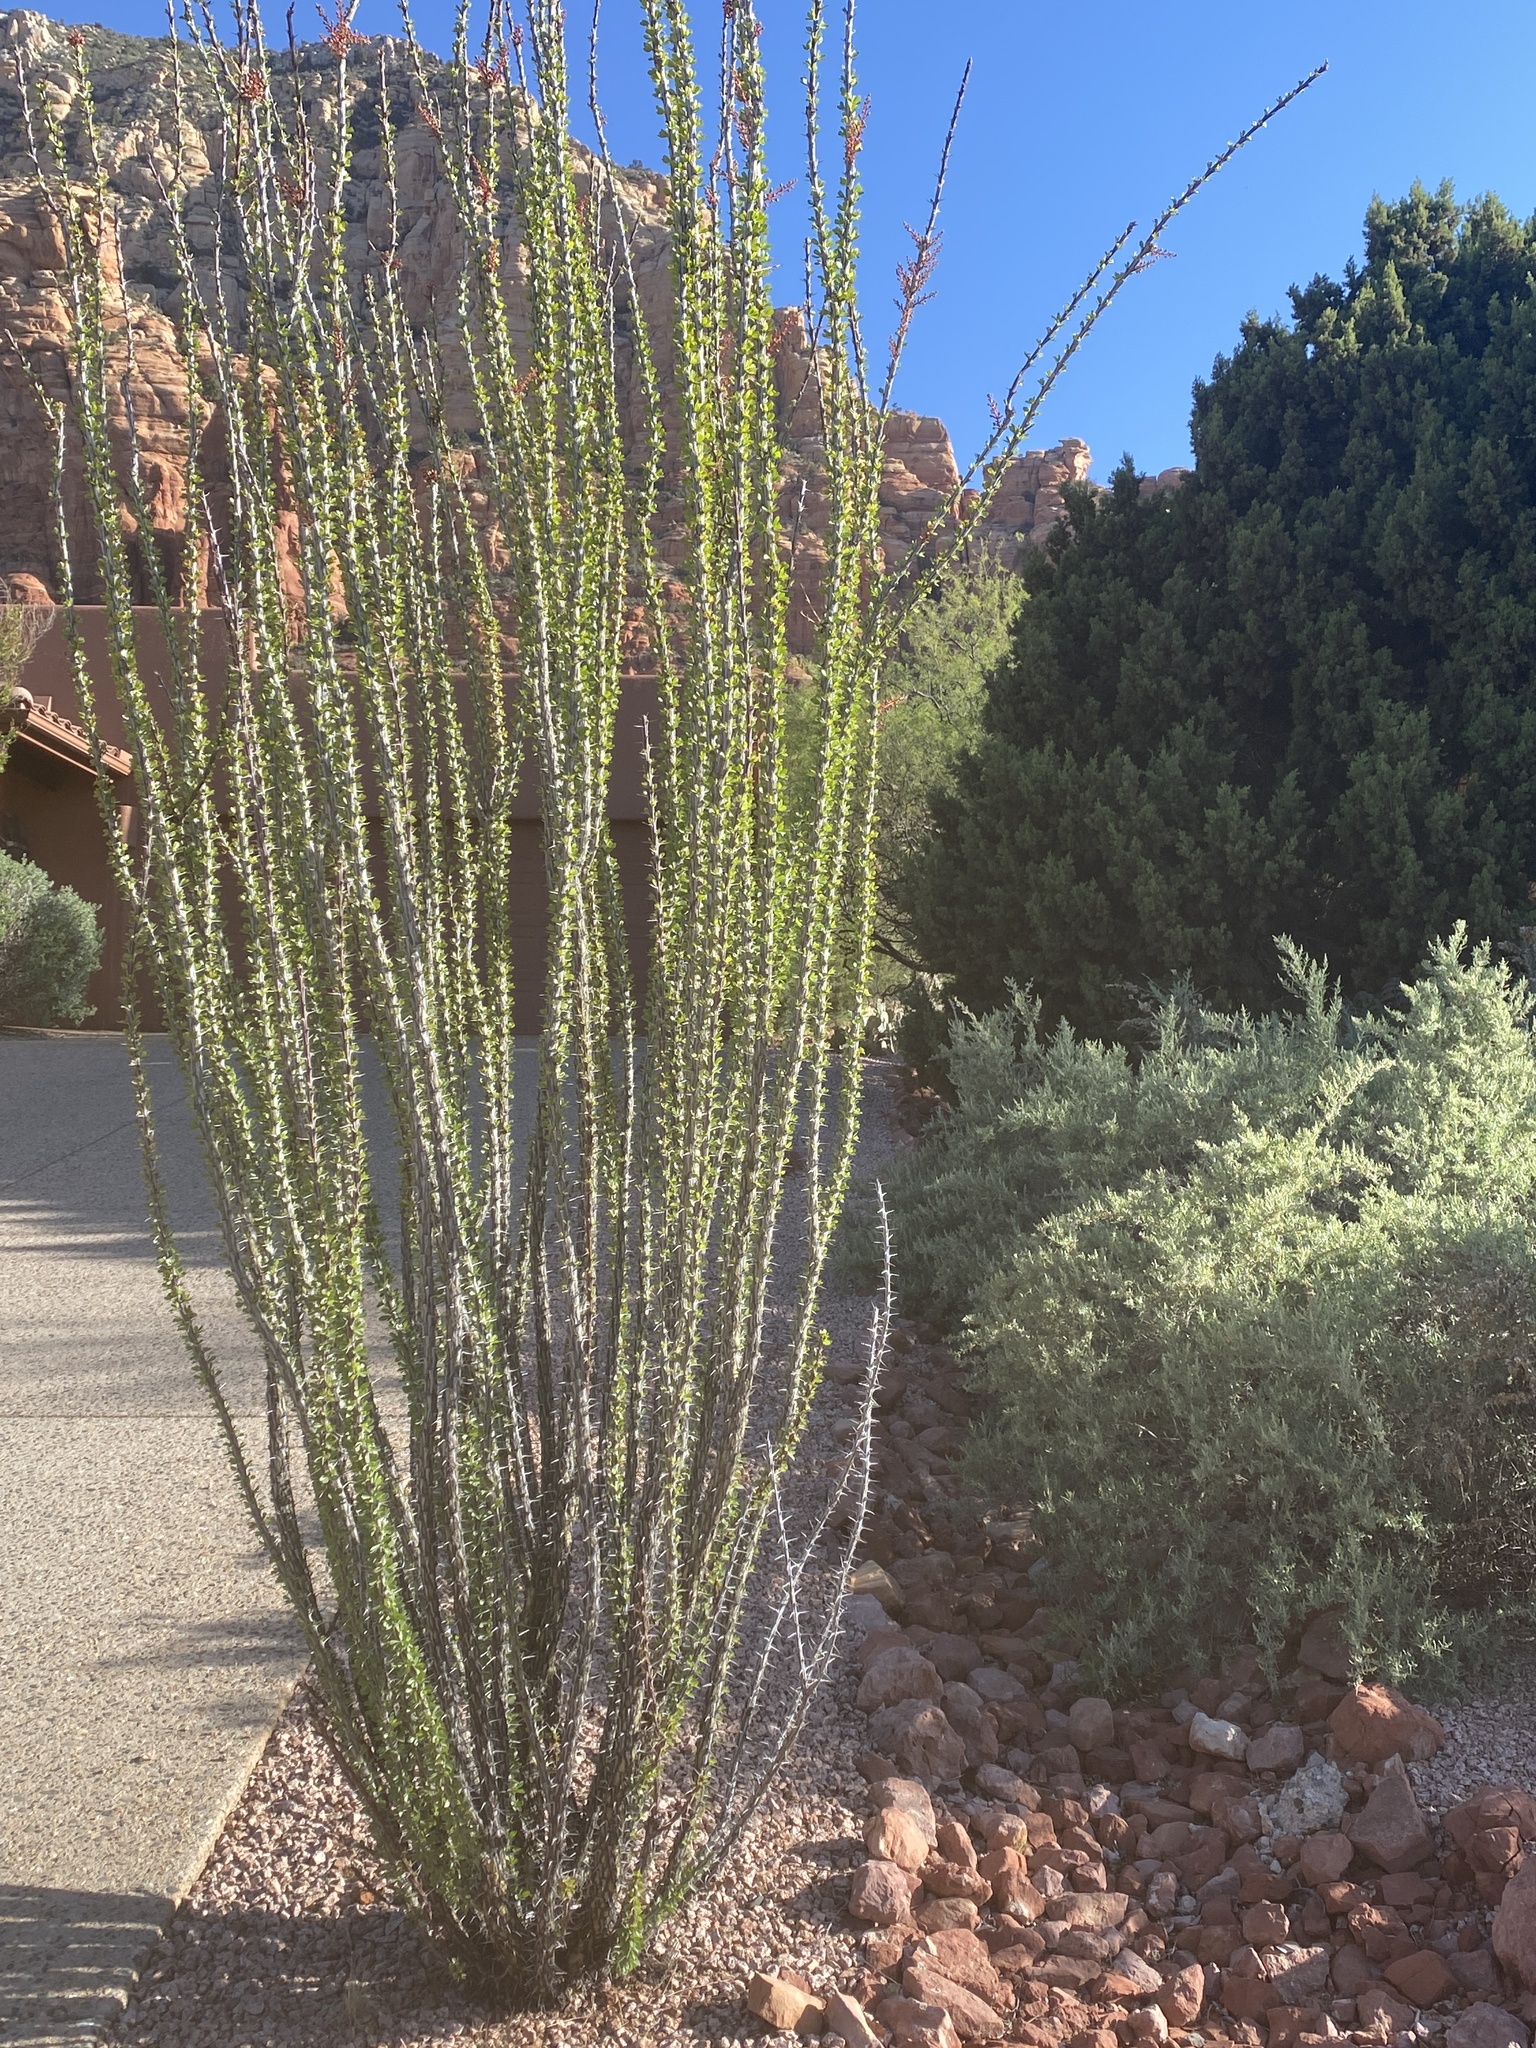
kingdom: Plantae
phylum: Tracheophyta
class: Magnoliopsida
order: Ericales
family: Fouquieriaceae
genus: Fouquieria
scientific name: Fouquieria splendens
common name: Vine-cactus
